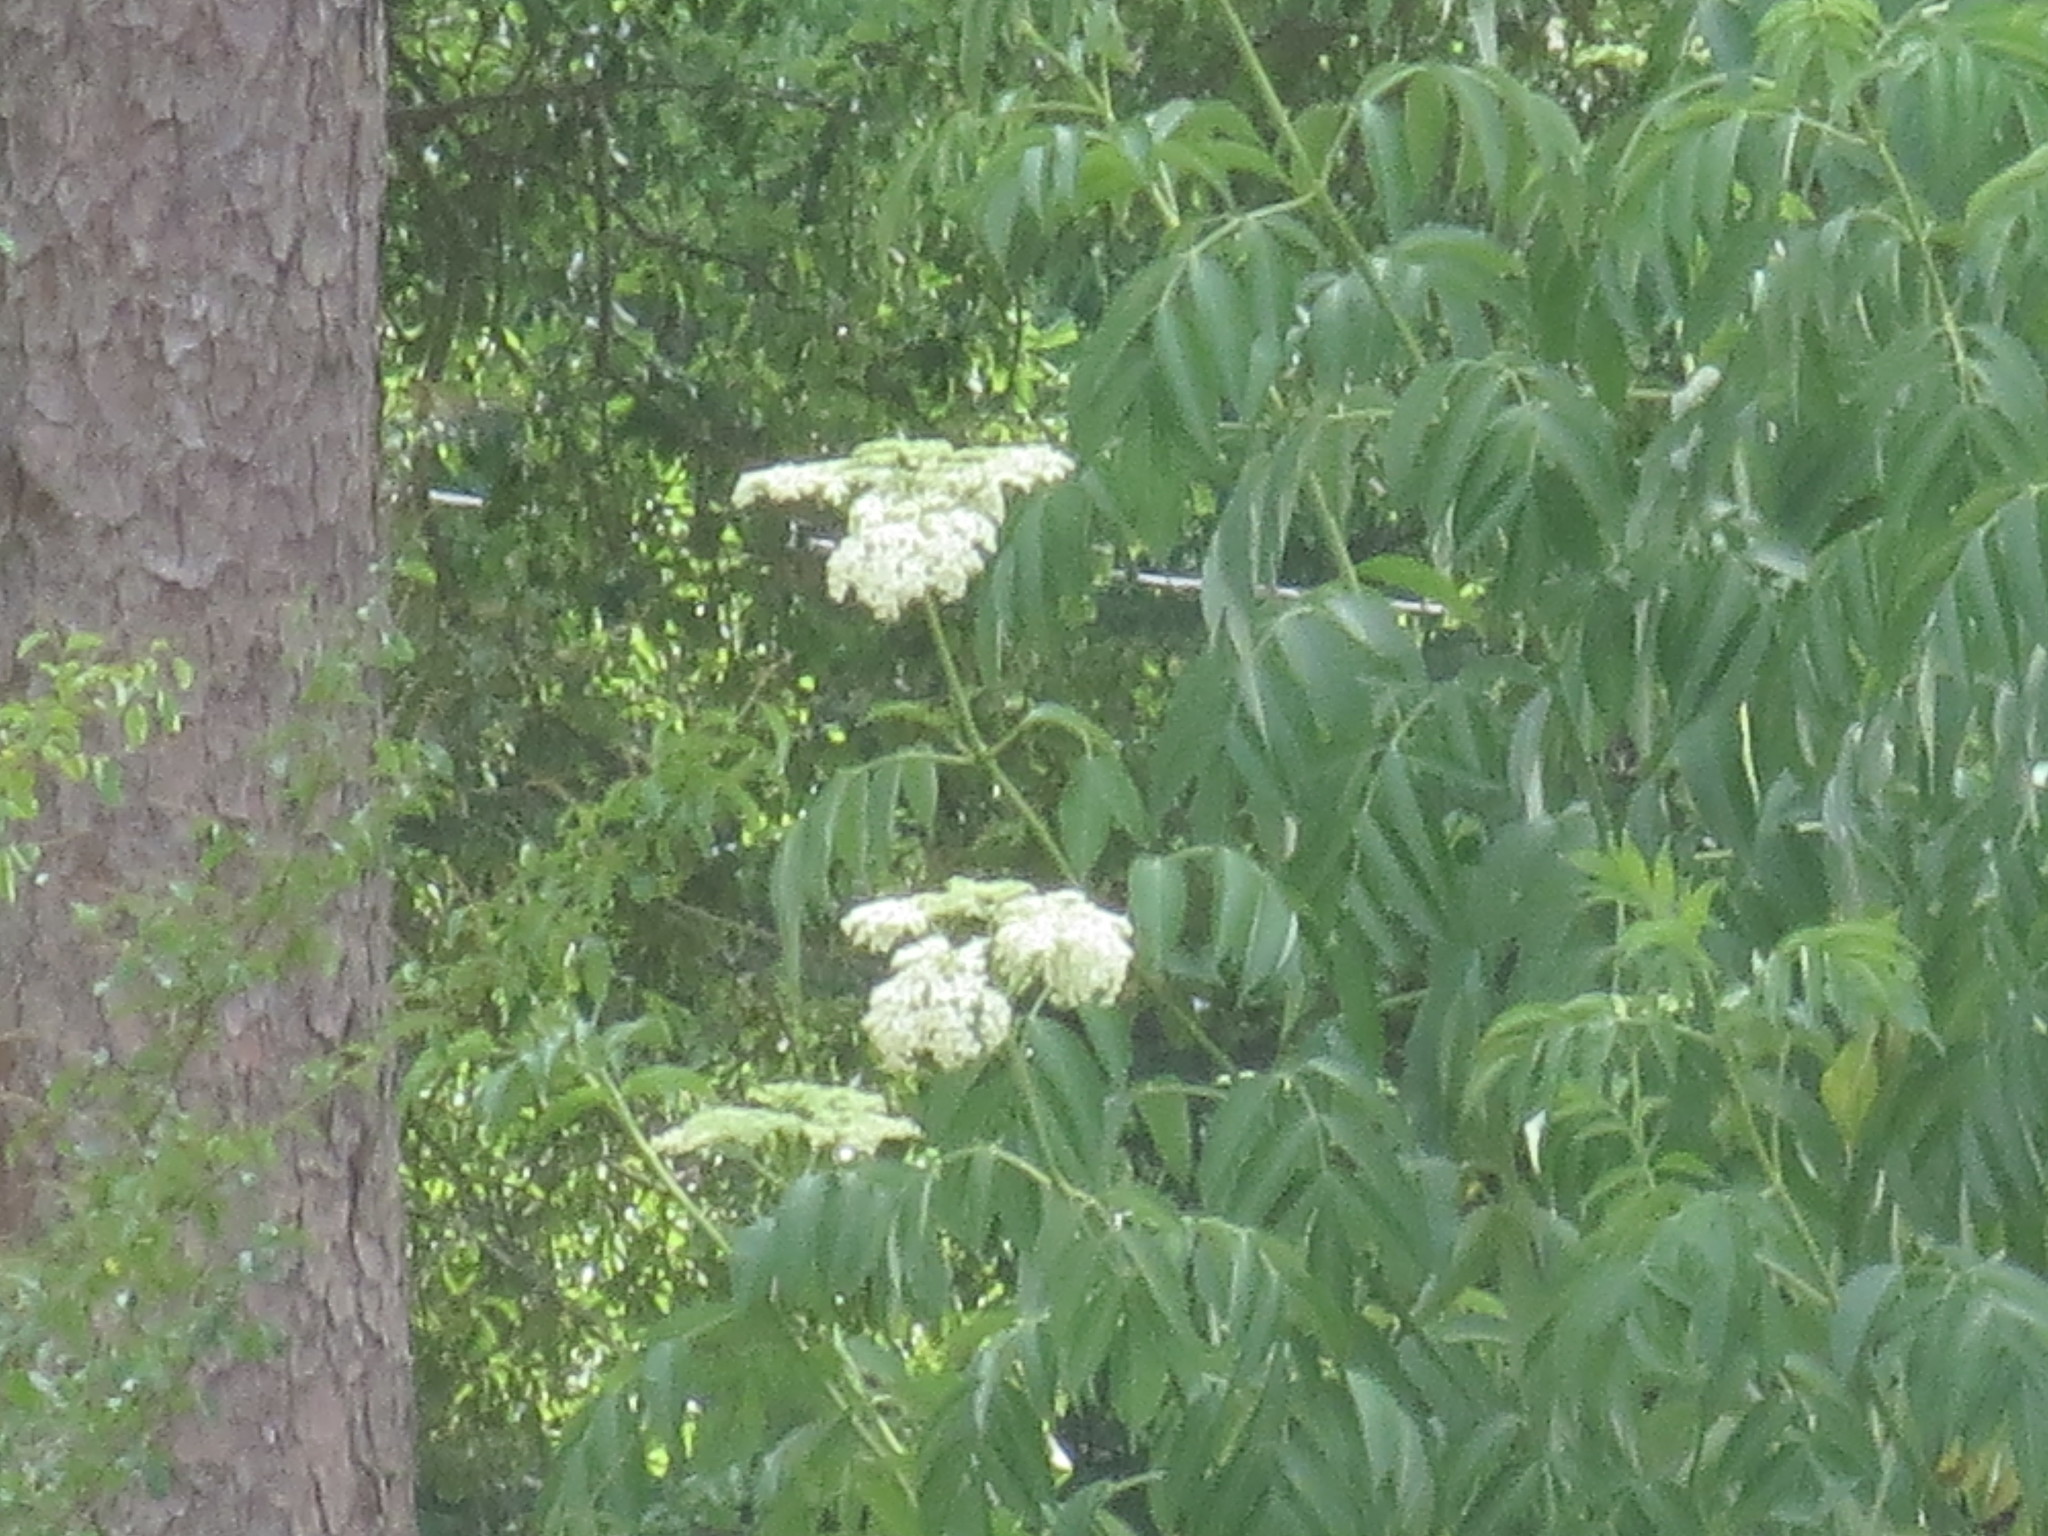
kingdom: Plantae
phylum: Tracheophyta
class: Magnoliopsida
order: Dipsacales
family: Viburnaceae
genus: Sambucus
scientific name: Sambucus canadensis
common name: American elder
